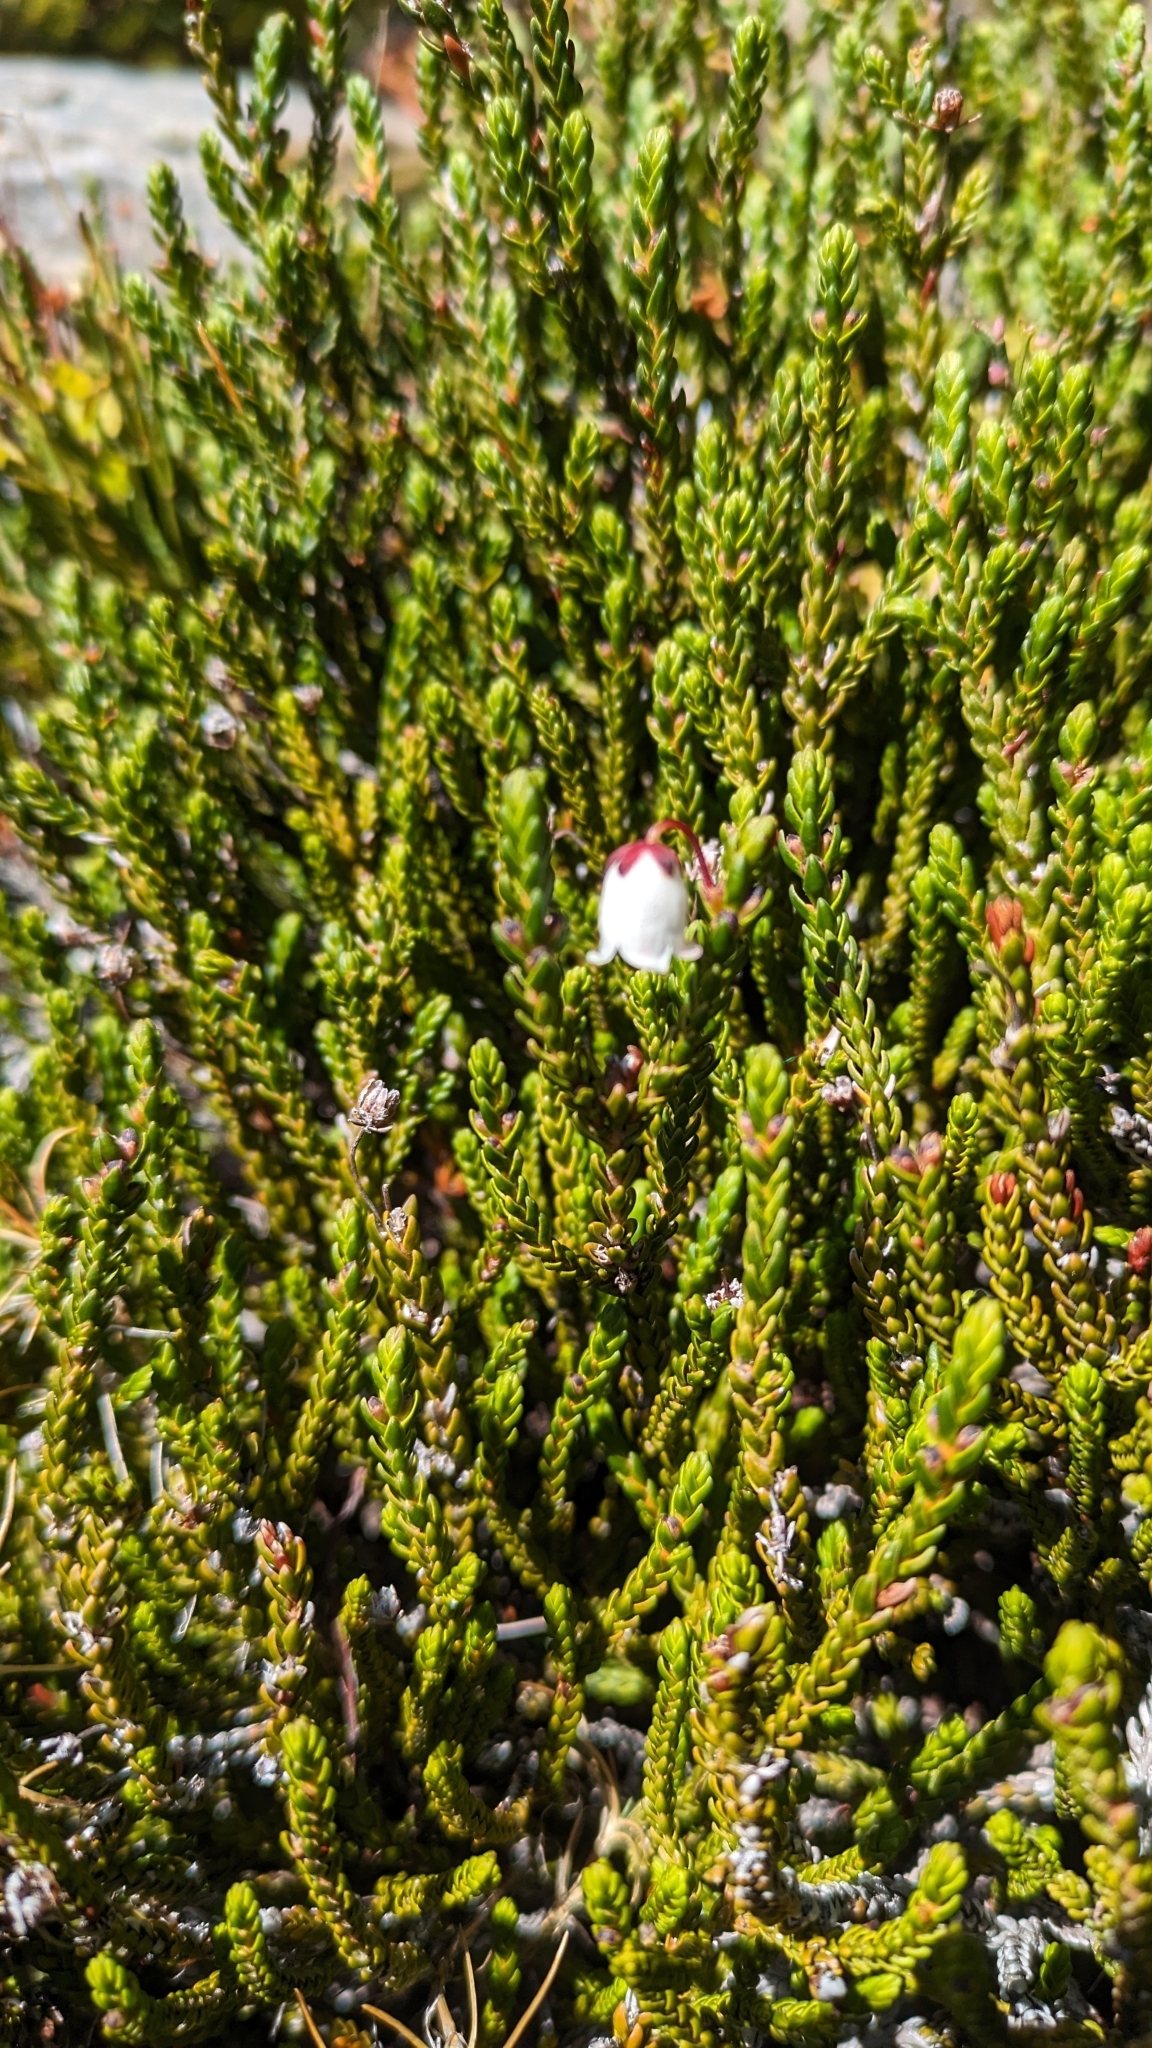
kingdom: Plantae
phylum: Tracheophyta
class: Magnoliopsida
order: Ericales
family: Ericaceae
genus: Cassiope
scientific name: Cassiope mertensiana
